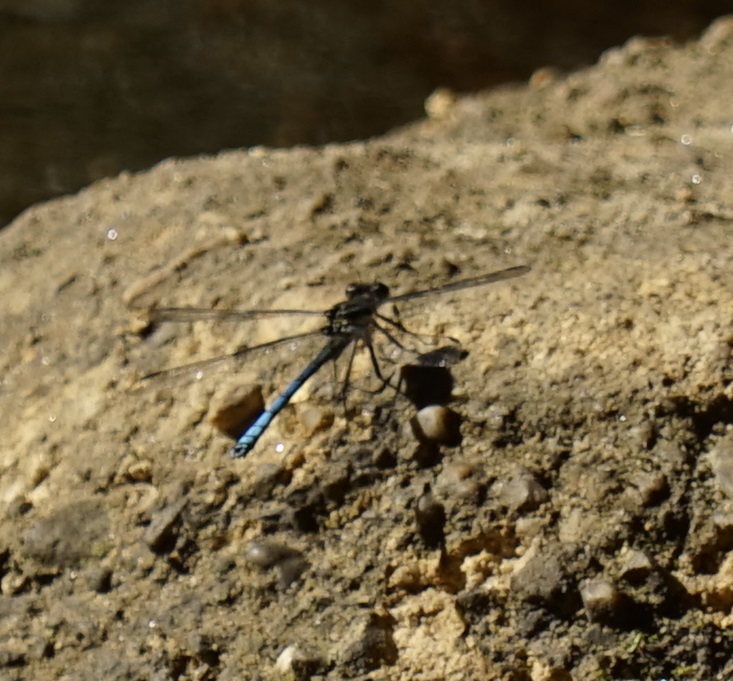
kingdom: Animalia
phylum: Arthropoda
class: Insecta
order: Odonata
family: Lestoideidae
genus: Diphlebia
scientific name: Diphlebia lestoides
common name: Whitewater rockmaster
